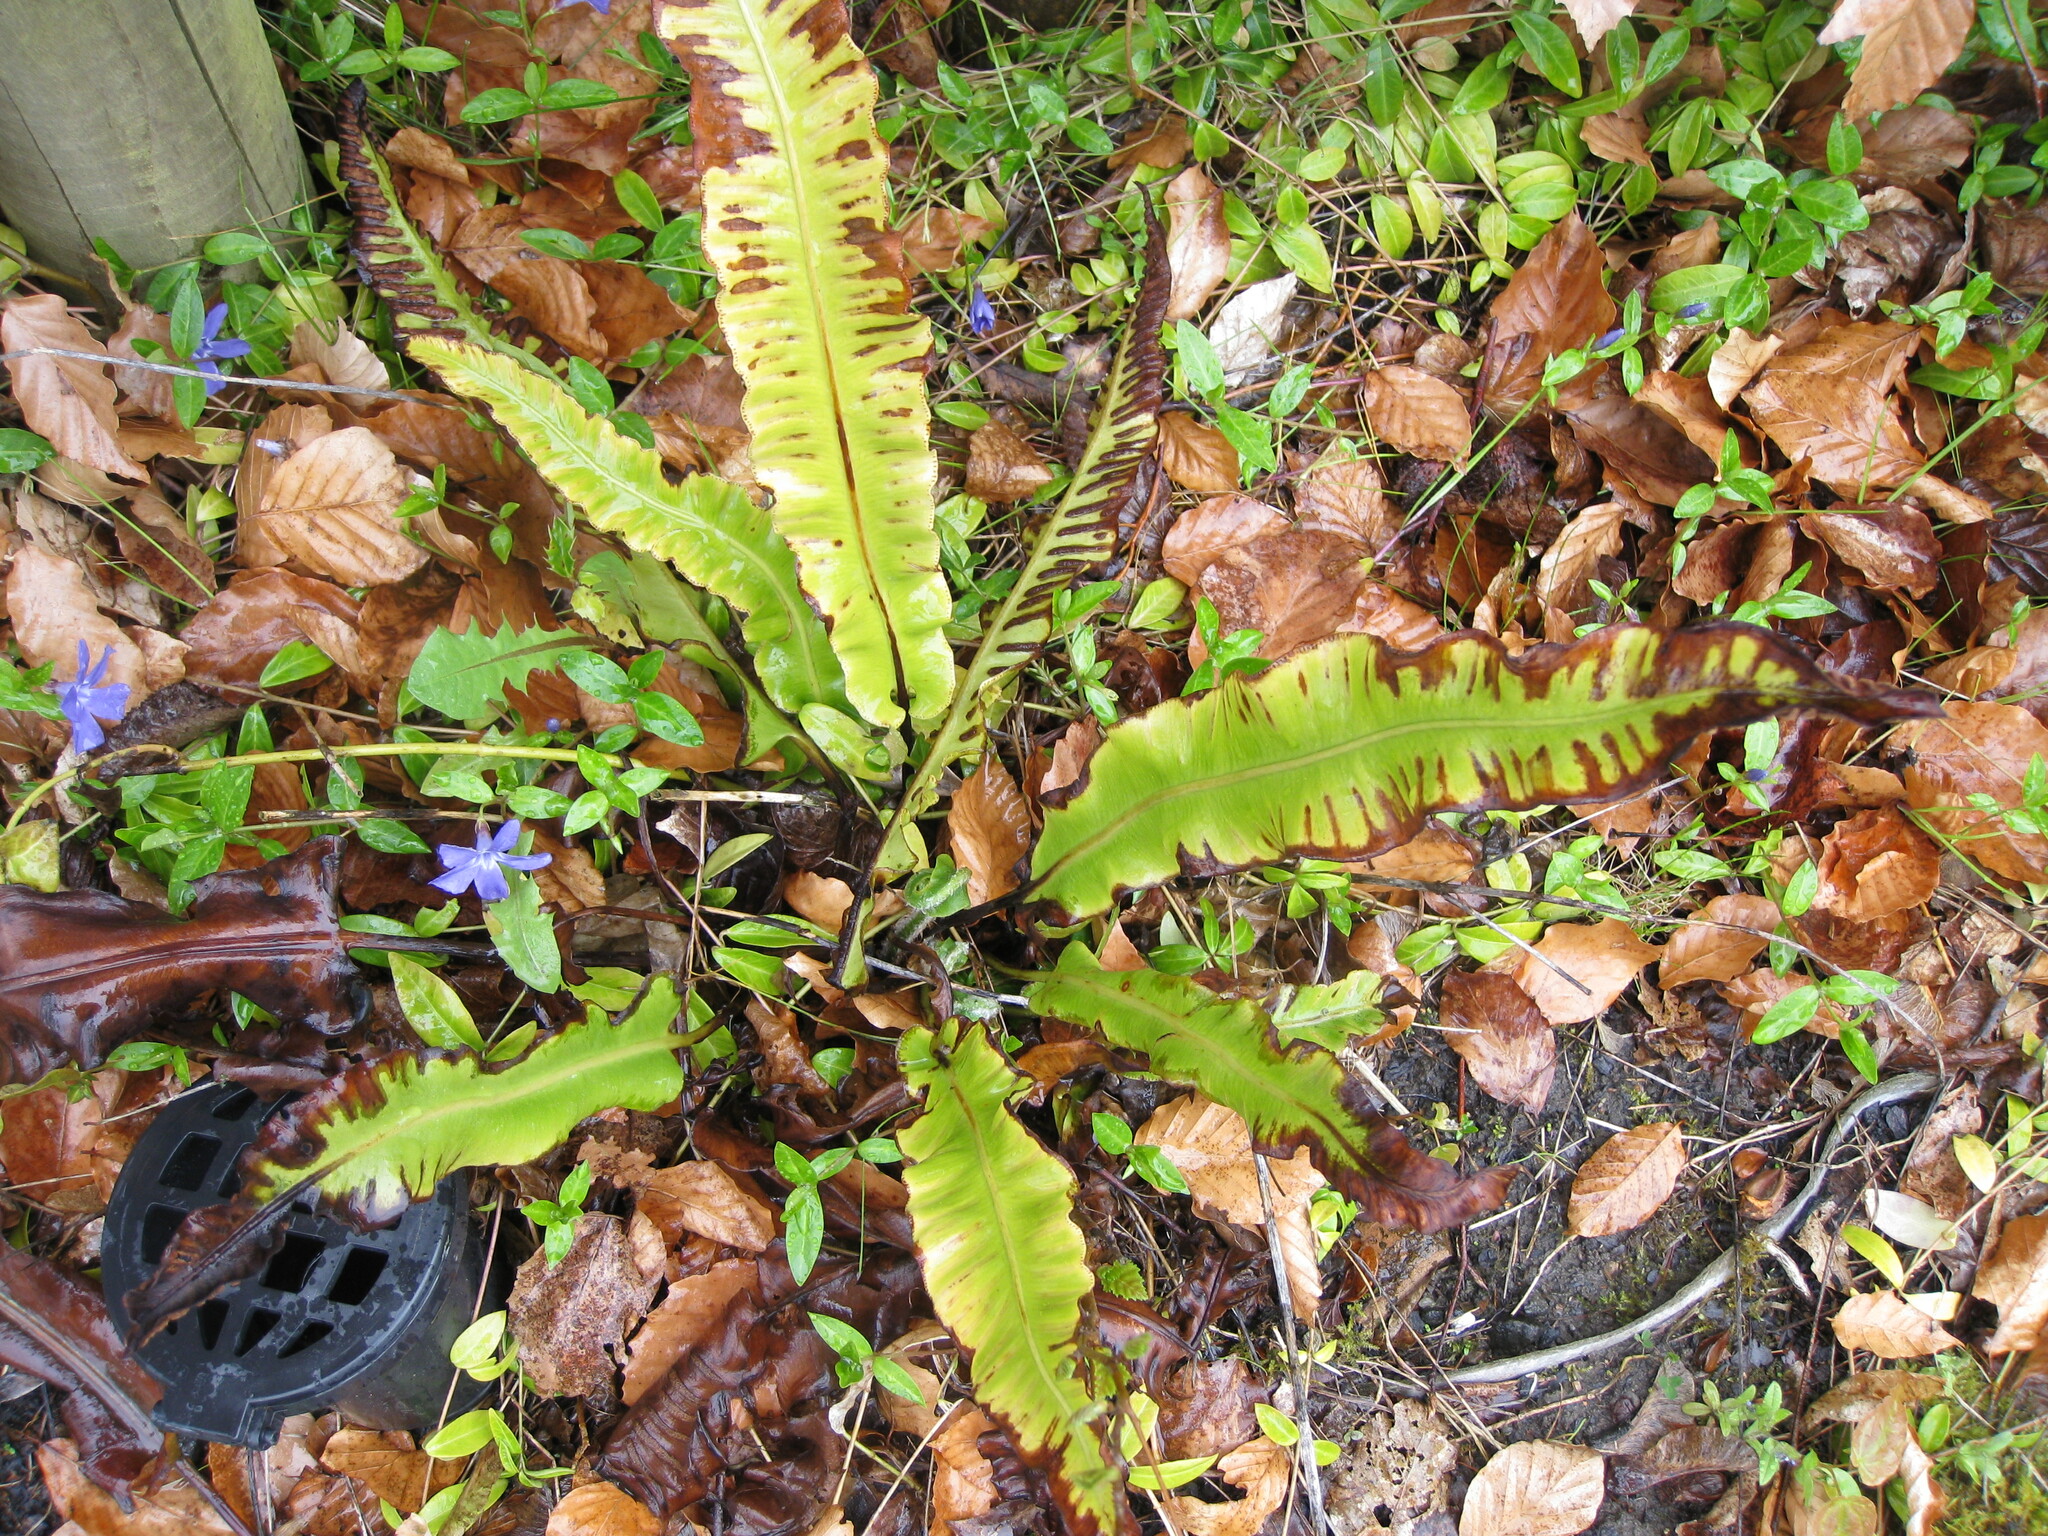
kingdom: Plantae
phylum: Tracheophyta
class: Polypodiopsida
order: Polypodiales
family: Aspleniaceae
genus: Asplenium
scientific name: Asplenium scolopendrium
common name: Hart's-tongue fern
